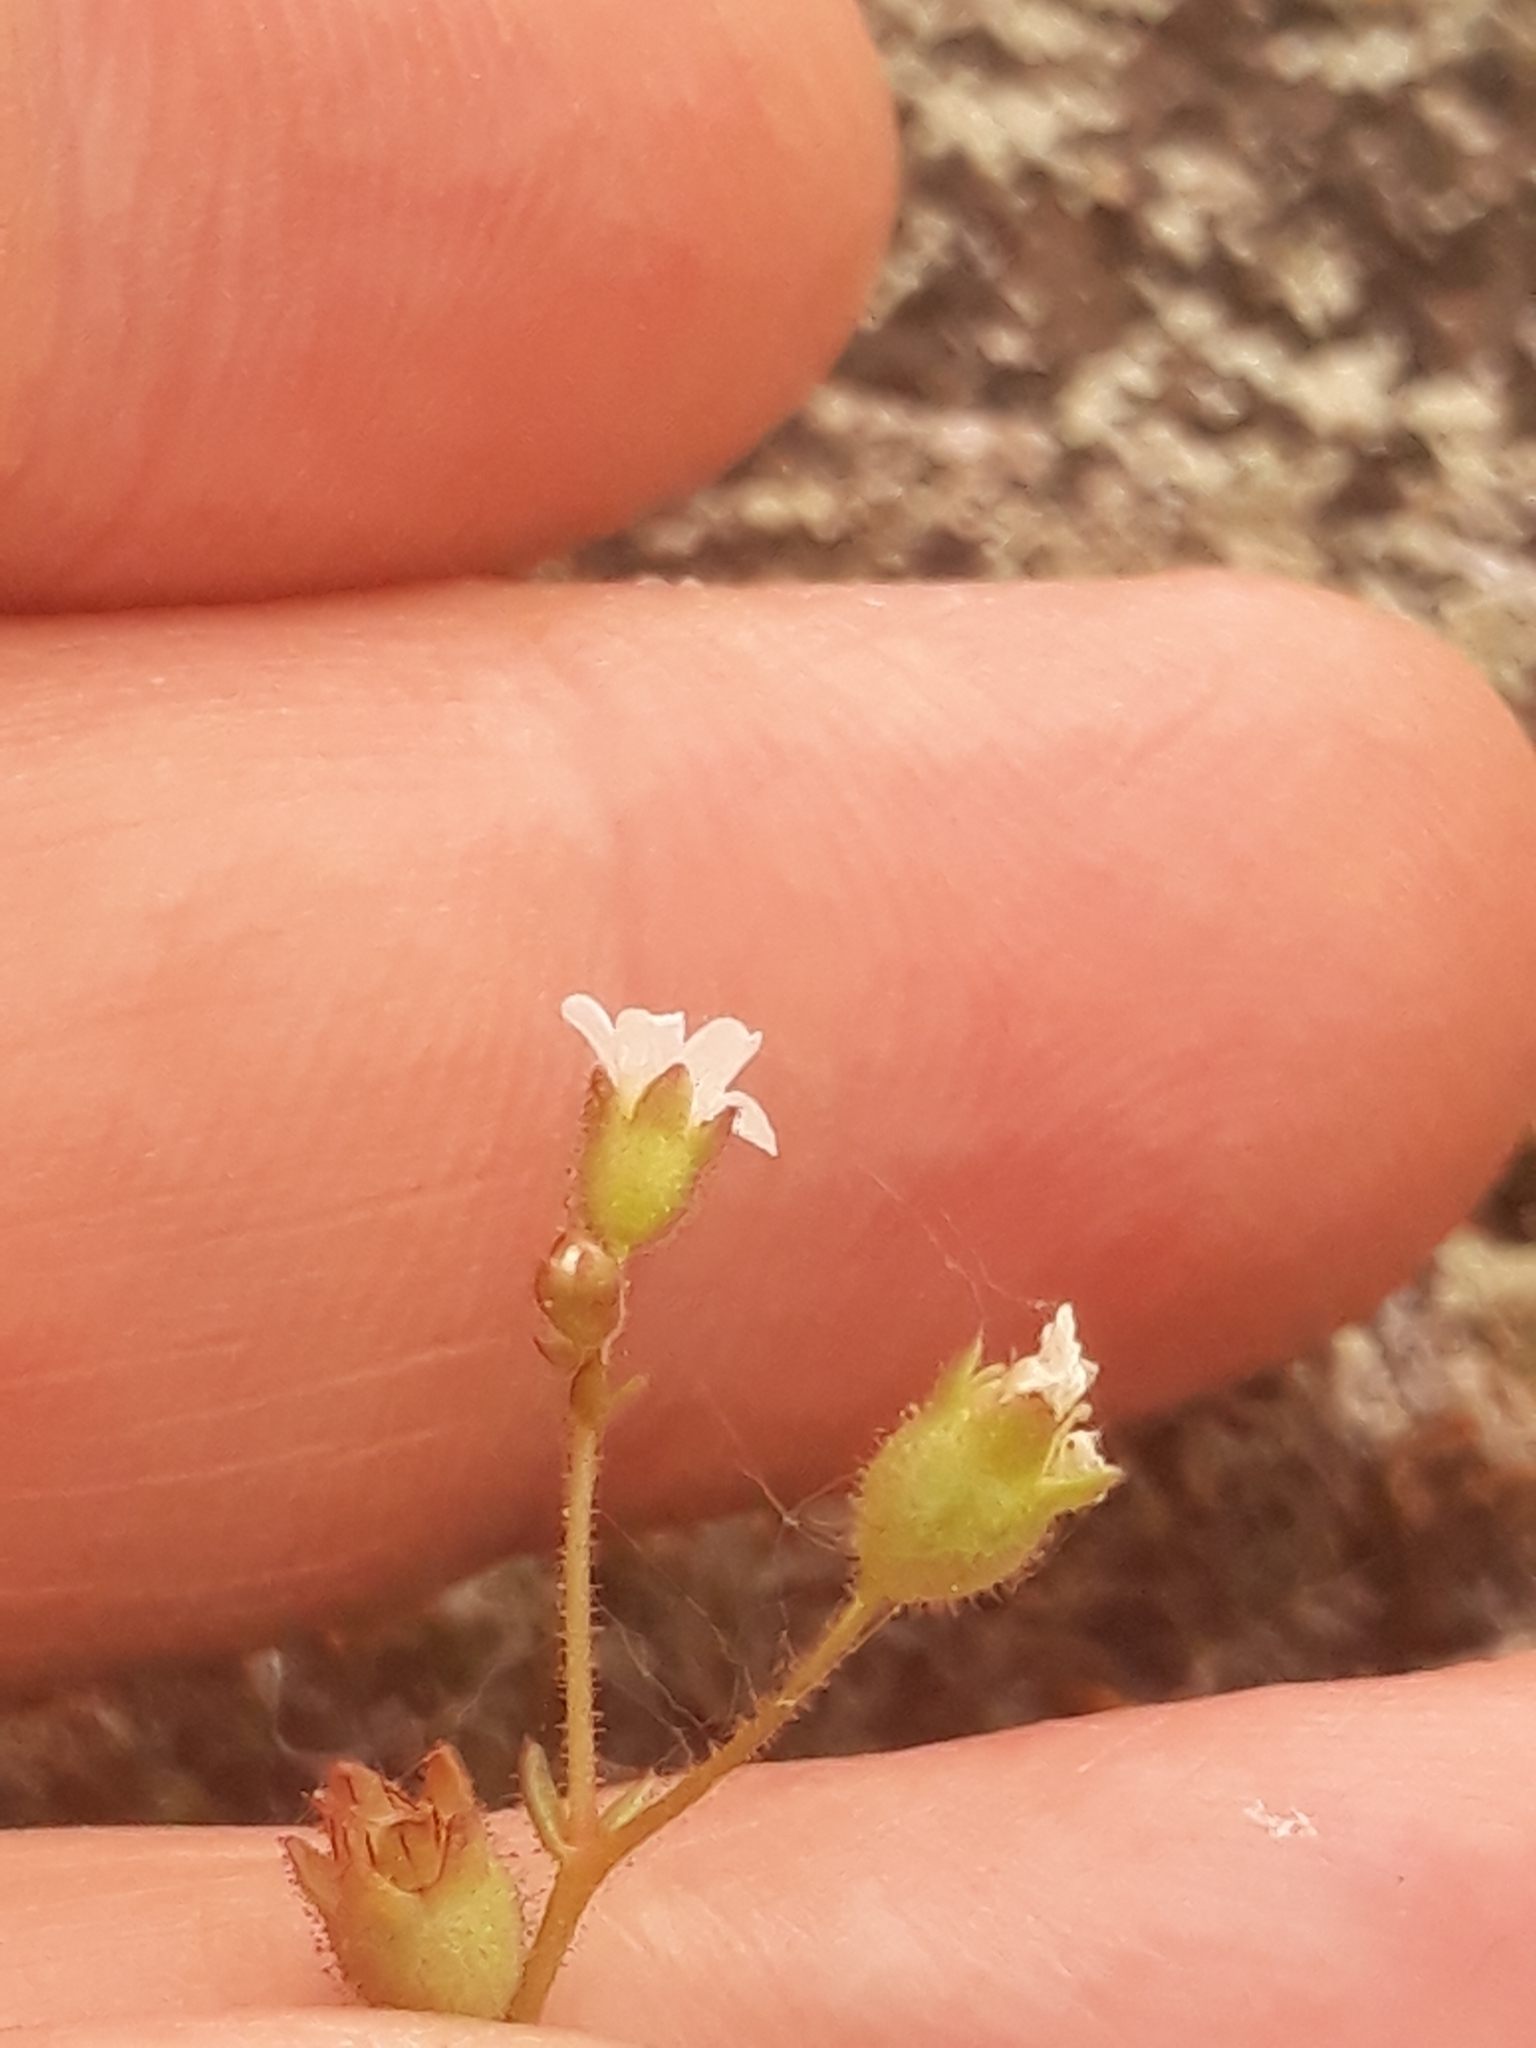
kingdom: Plantae
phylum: Tracheophyta
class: Magnoliopsida
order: Saxifragales
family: Saxifragaceae
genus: Saxifraga
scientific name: Saxifraga tridactylites
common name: Rue-leaved saxifrage
